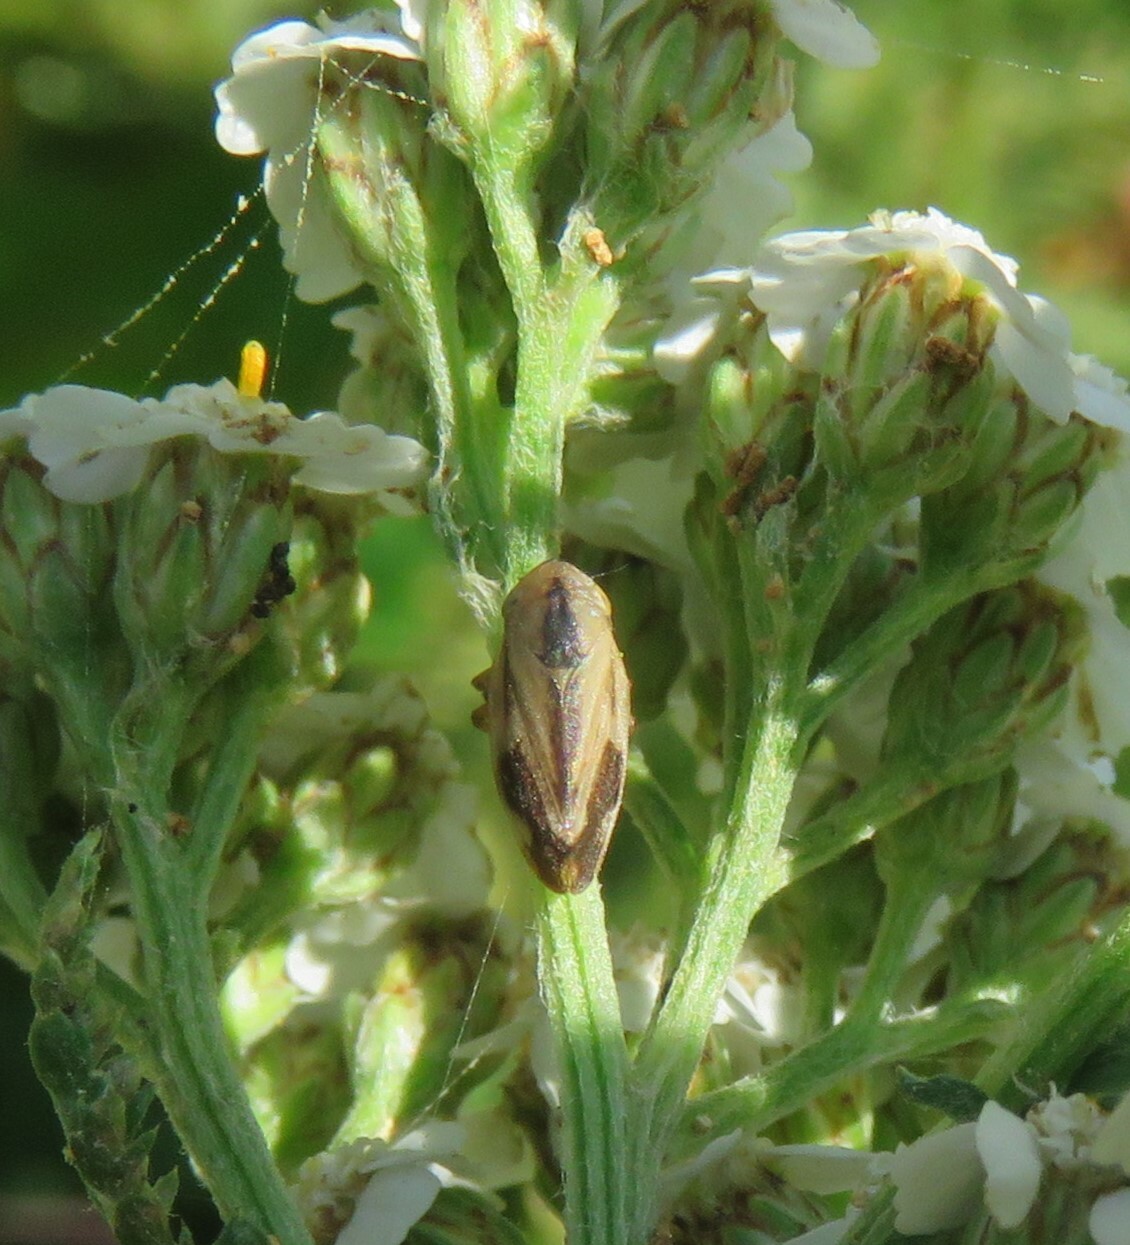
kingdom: Animalia
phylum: Arthropoda
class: Insecta
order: Hemiptera
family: Aphrophoridae
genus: Philaenus
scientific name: Philaenus spumarius
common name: Meadow spittlebug
